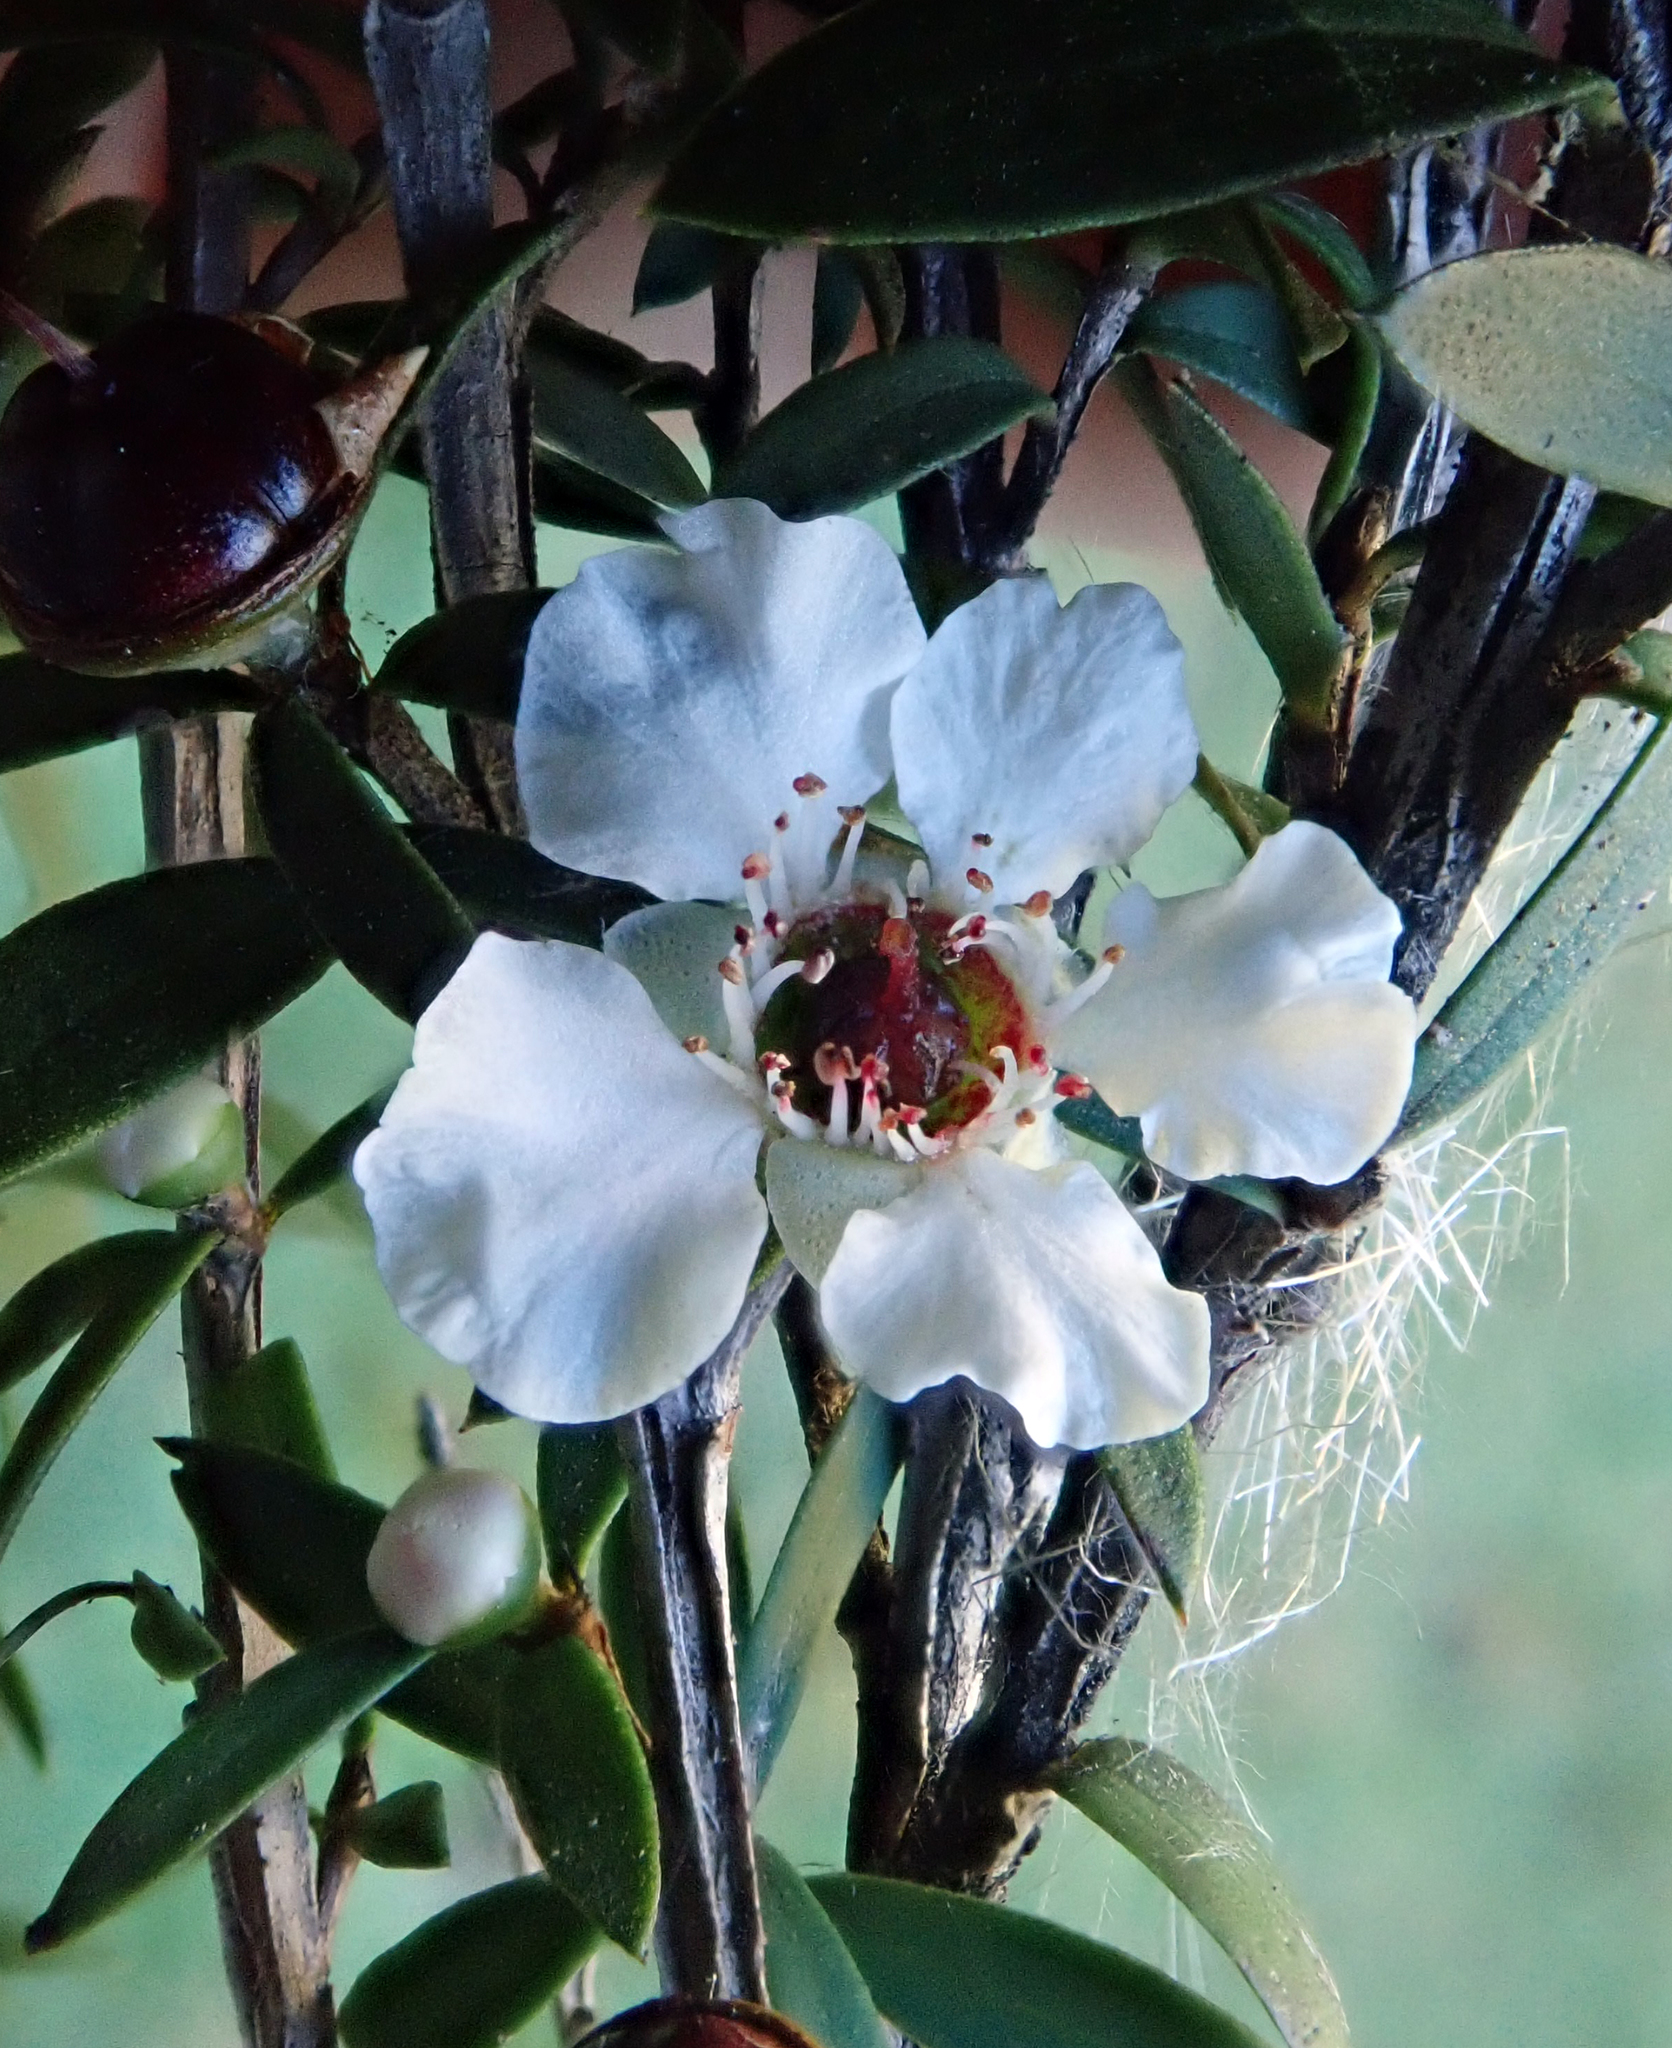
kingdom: Plantae
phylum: Tracheophyta
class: Magnoliopsida
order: Myrtales
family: Myrtaceae
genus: Leptospermum
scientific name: Leptospermum scoparium
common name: Broom tea-tree
